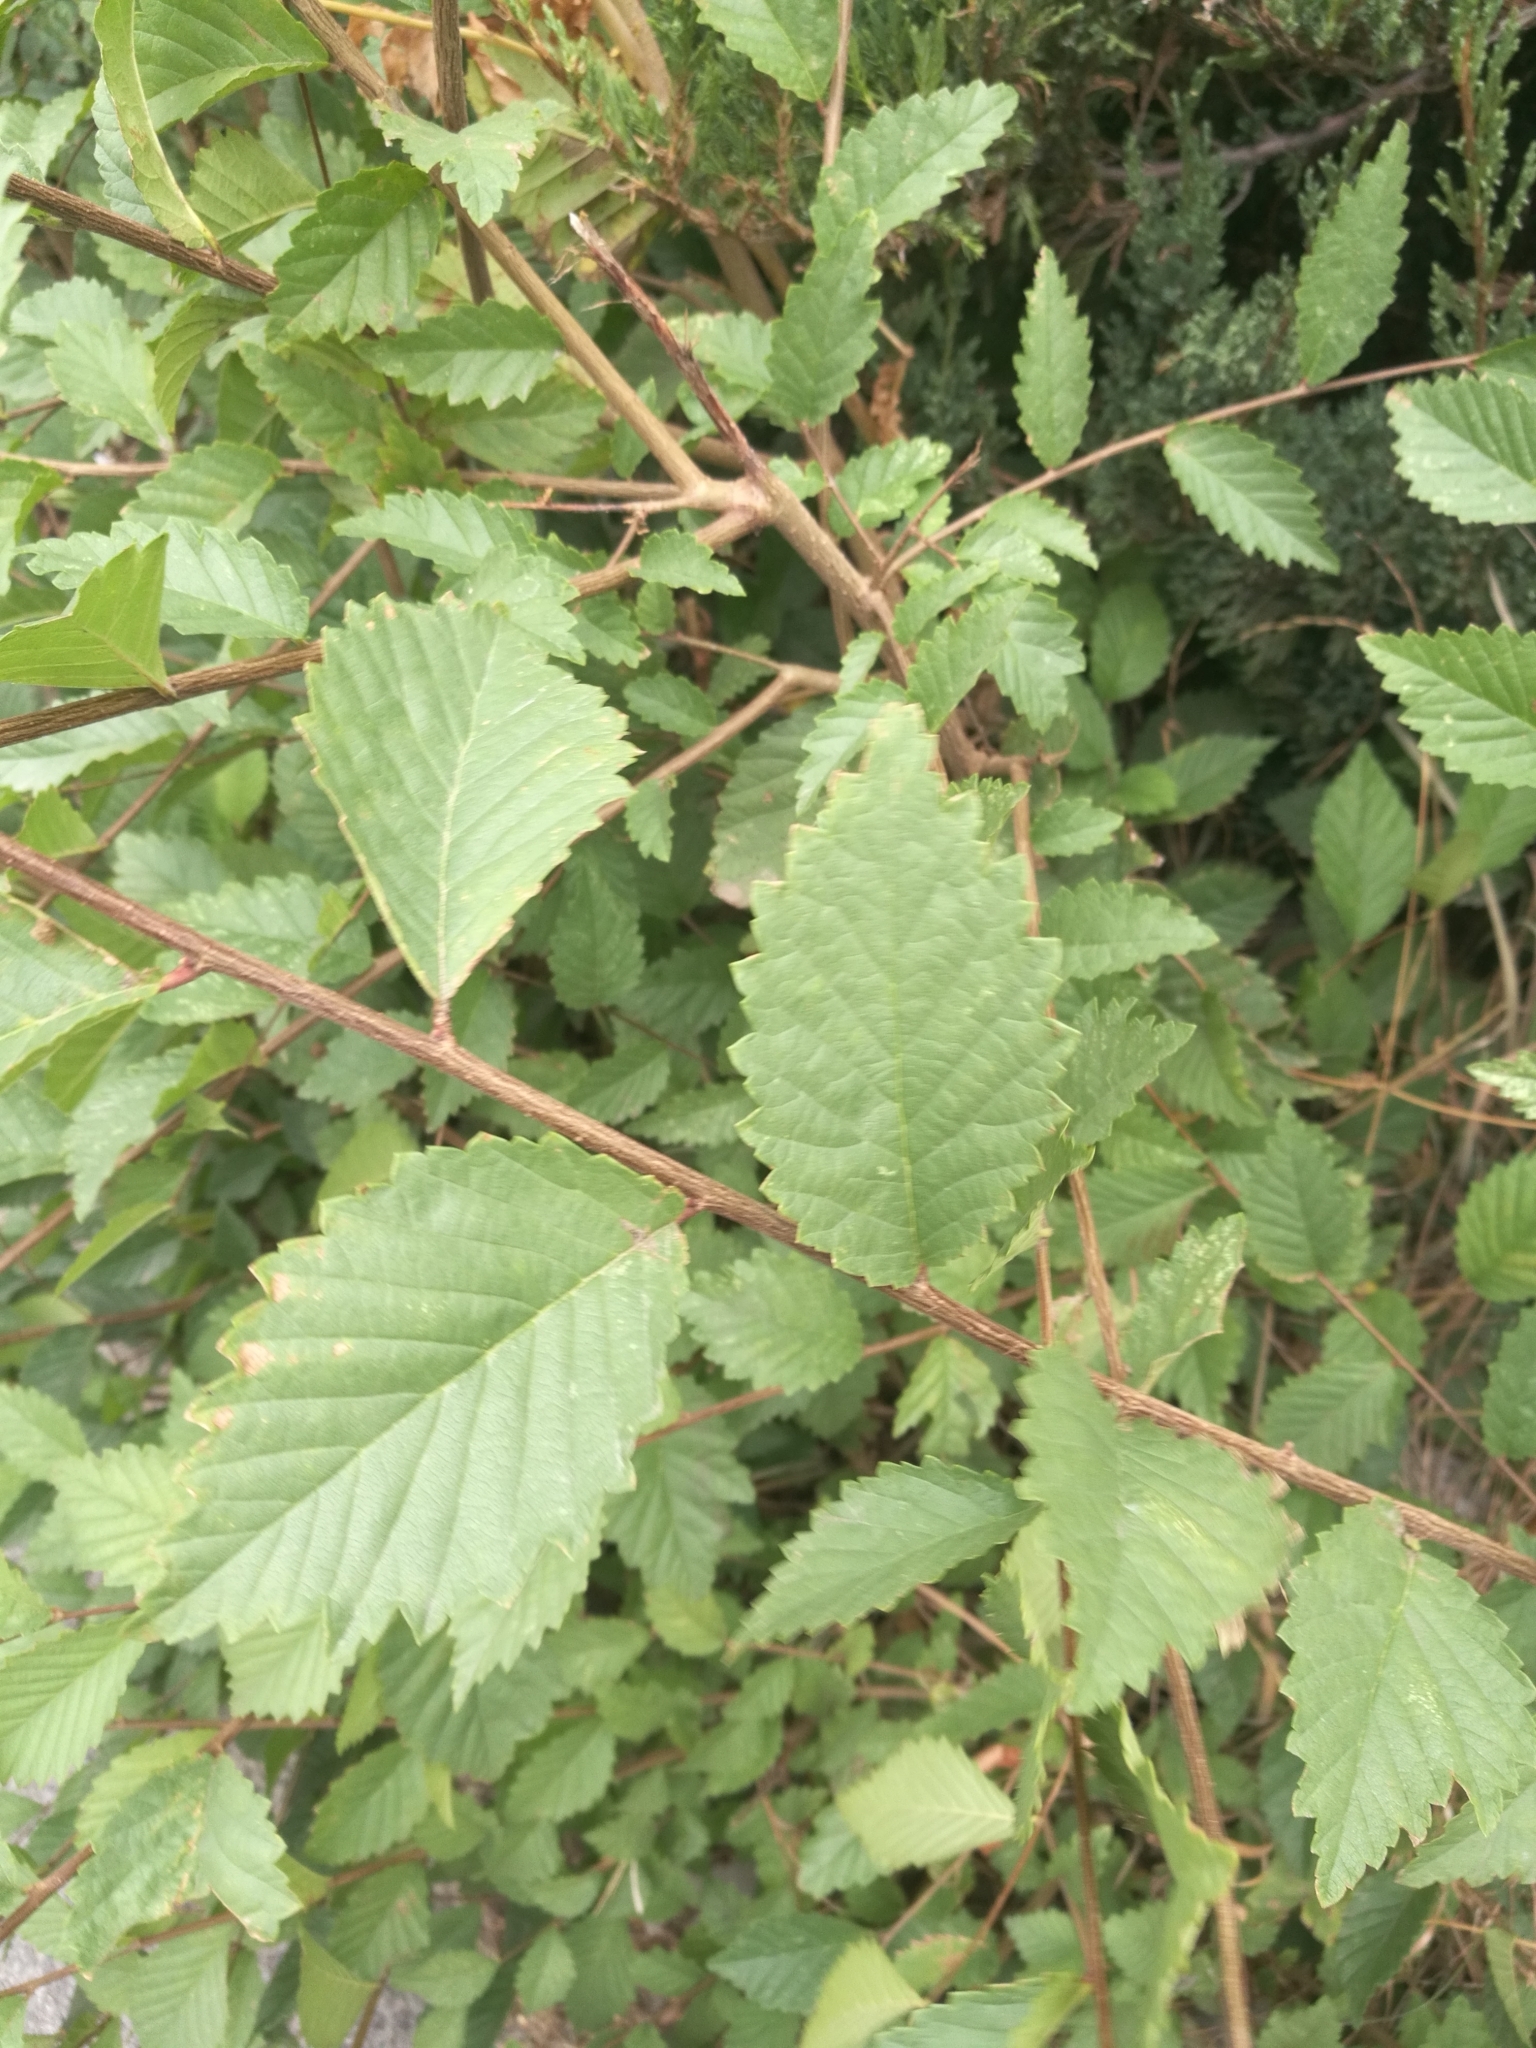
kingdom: Plantae
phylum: Tracheophyta
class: Magnoliopsida
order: Rosales
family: Ulmaceae
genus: Ulmus
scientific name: Ulmus pumila
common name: Siberian elm
